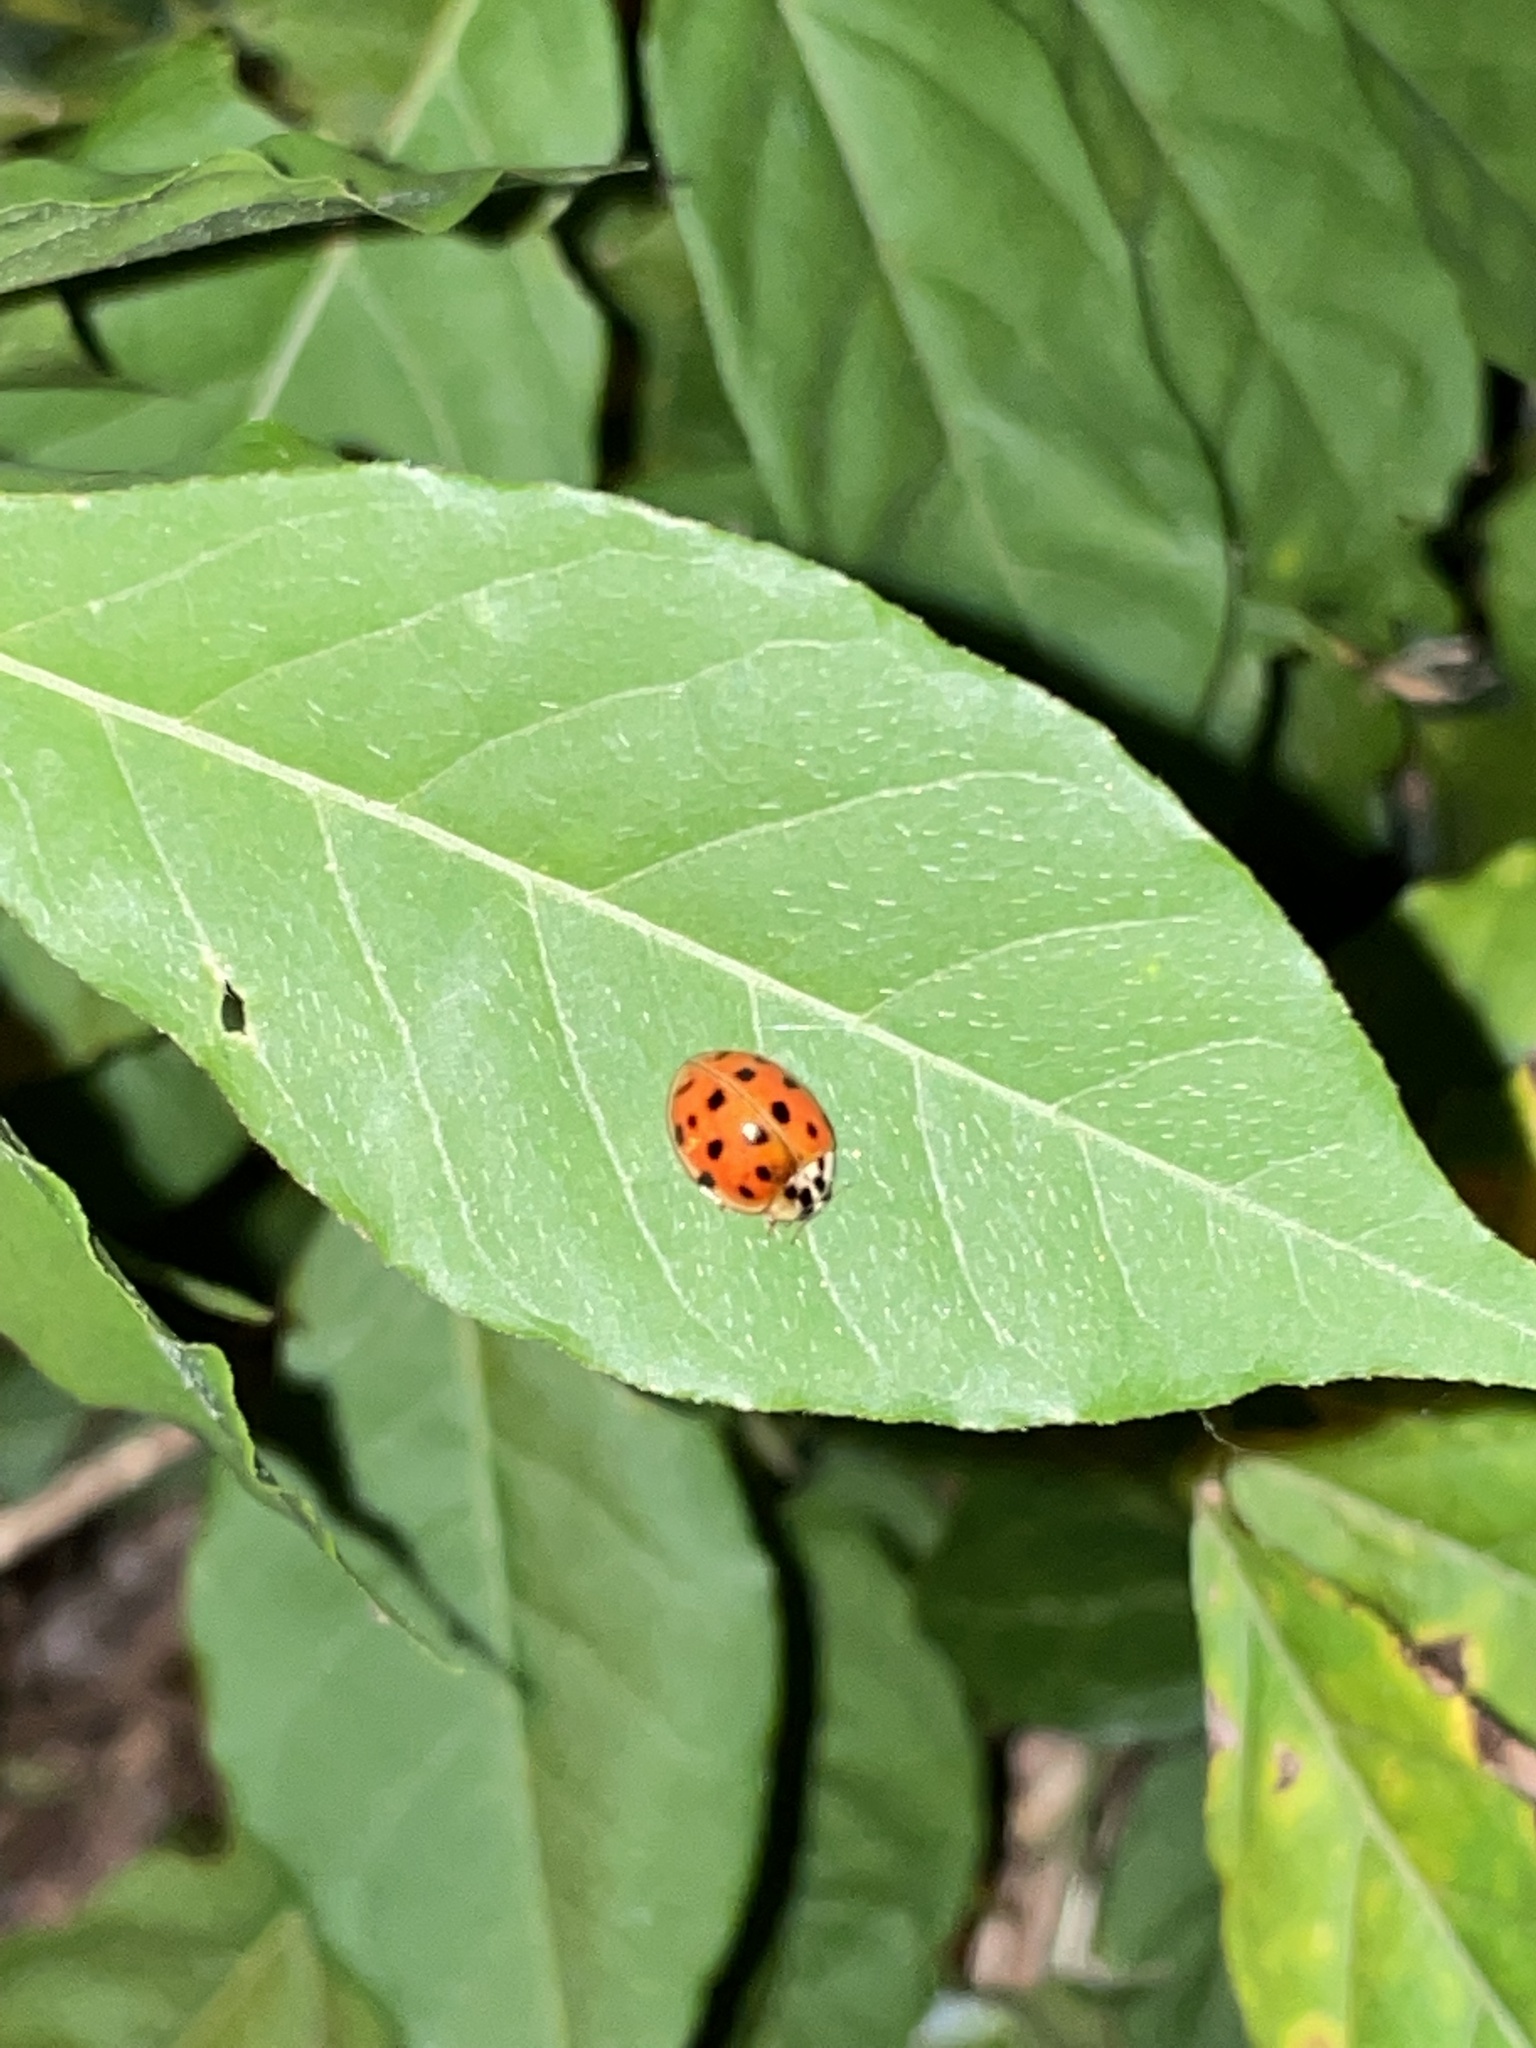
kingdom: Animalia
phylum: Arthropoda
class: Insecta
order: Coleoptera
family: Coccinellidae
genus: Harmonia
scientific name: Harmonia axyridis
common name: Harlequin ladybird
